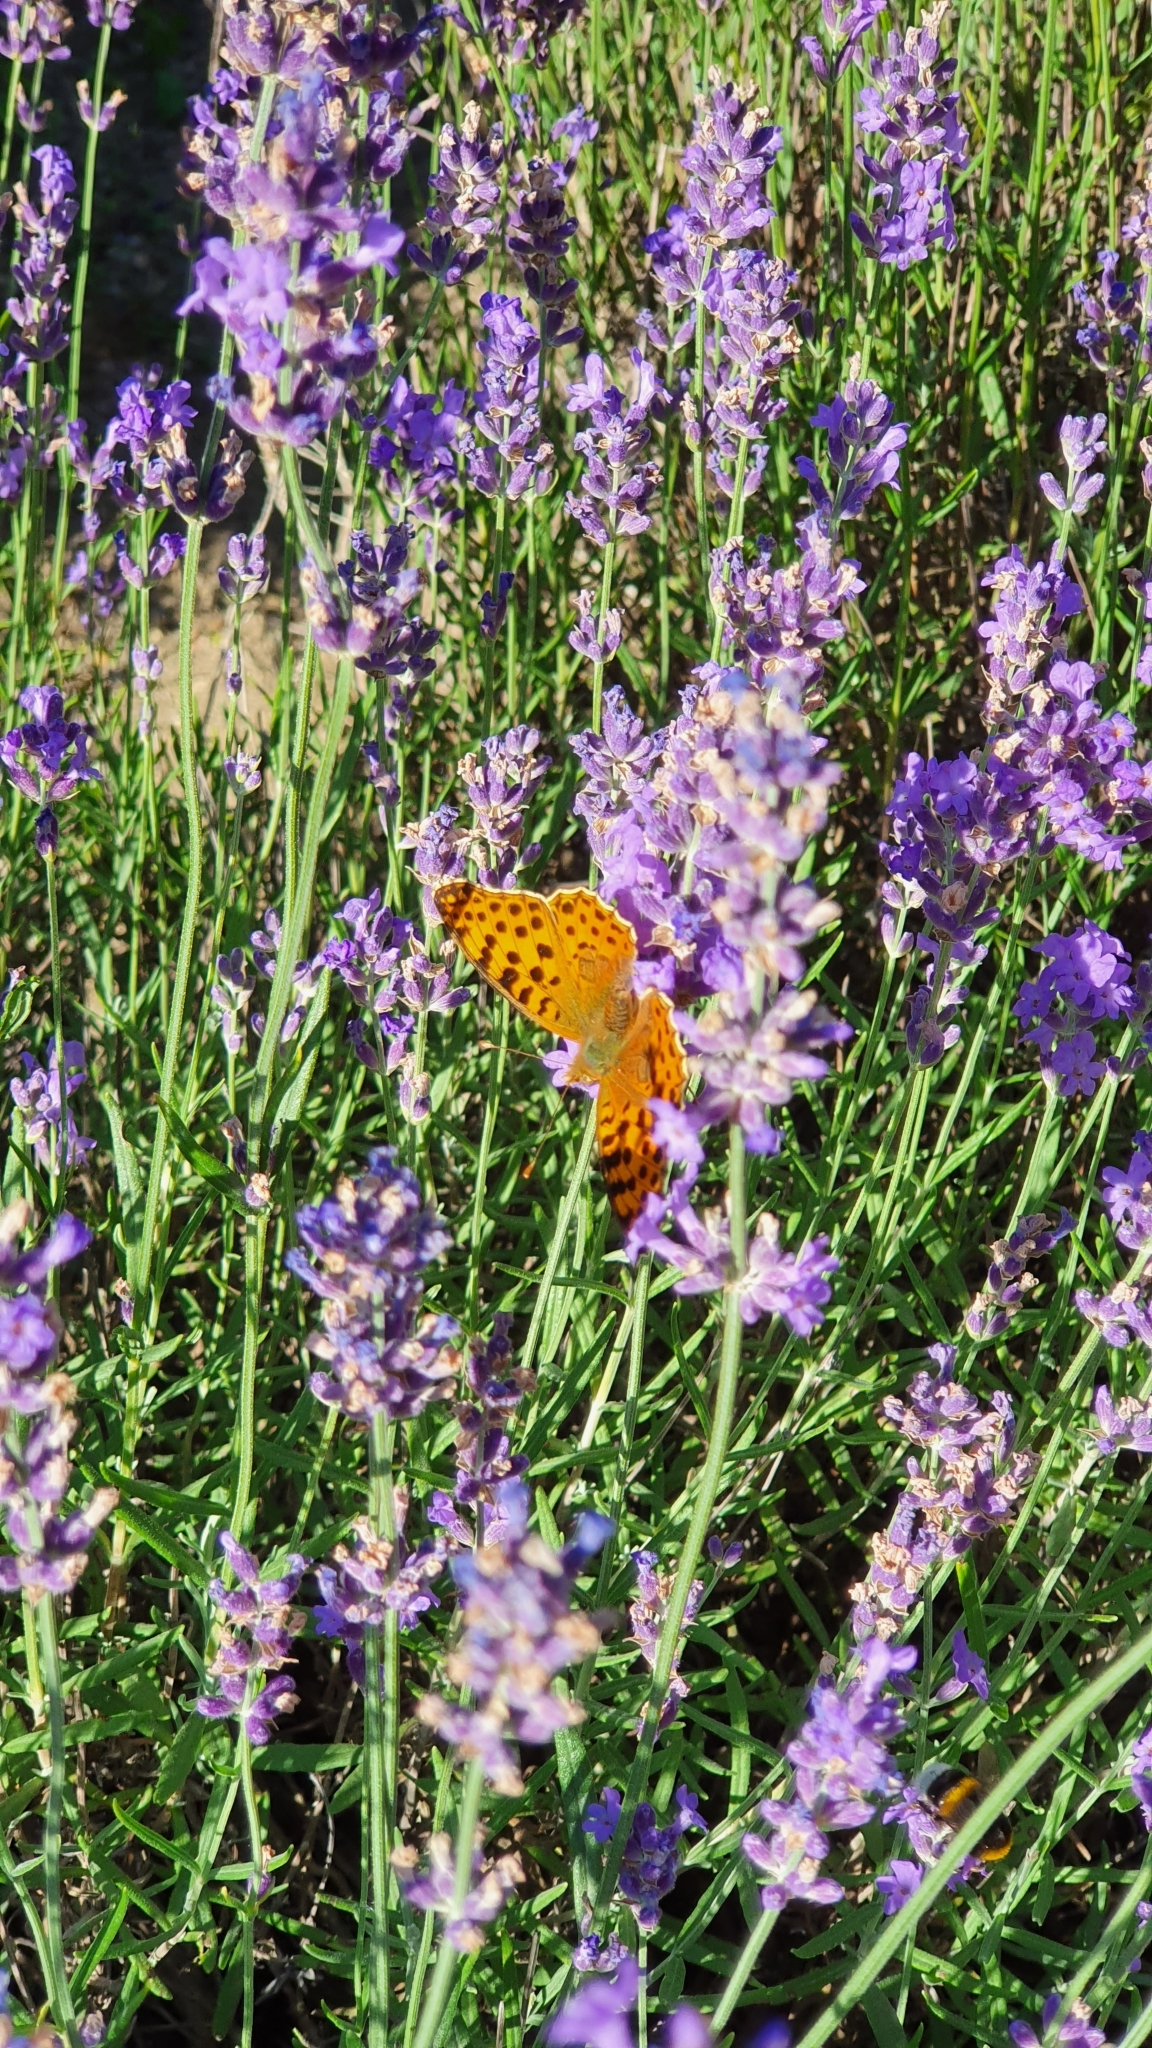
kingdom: Animalia
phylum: Arthropoda
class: Insecta
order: Lepidoptera
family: Nymphalidae
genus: Issoria
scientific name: Issoria lathonia
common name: Queen of spain fritillary
